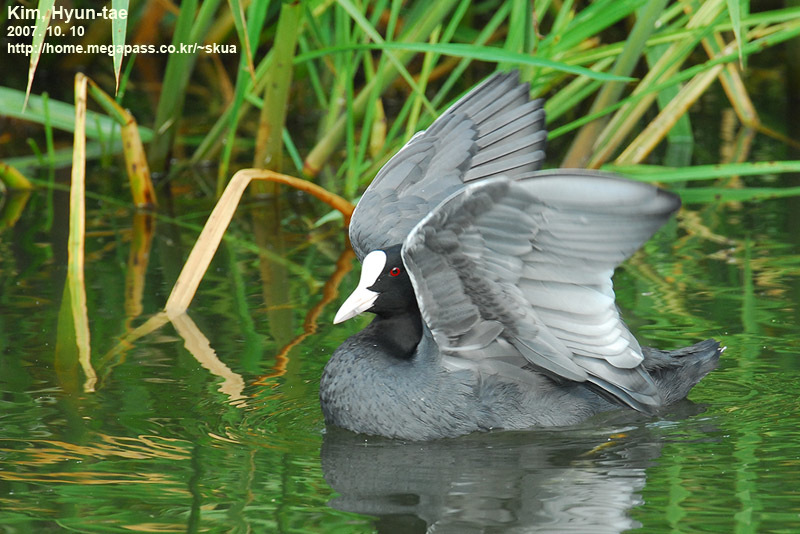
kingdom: Animalia
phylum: Chordata
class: Aves
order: Gruiformes
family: Rallidae
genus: Fulica
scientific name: Fulica atra
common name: Eurasian coot
